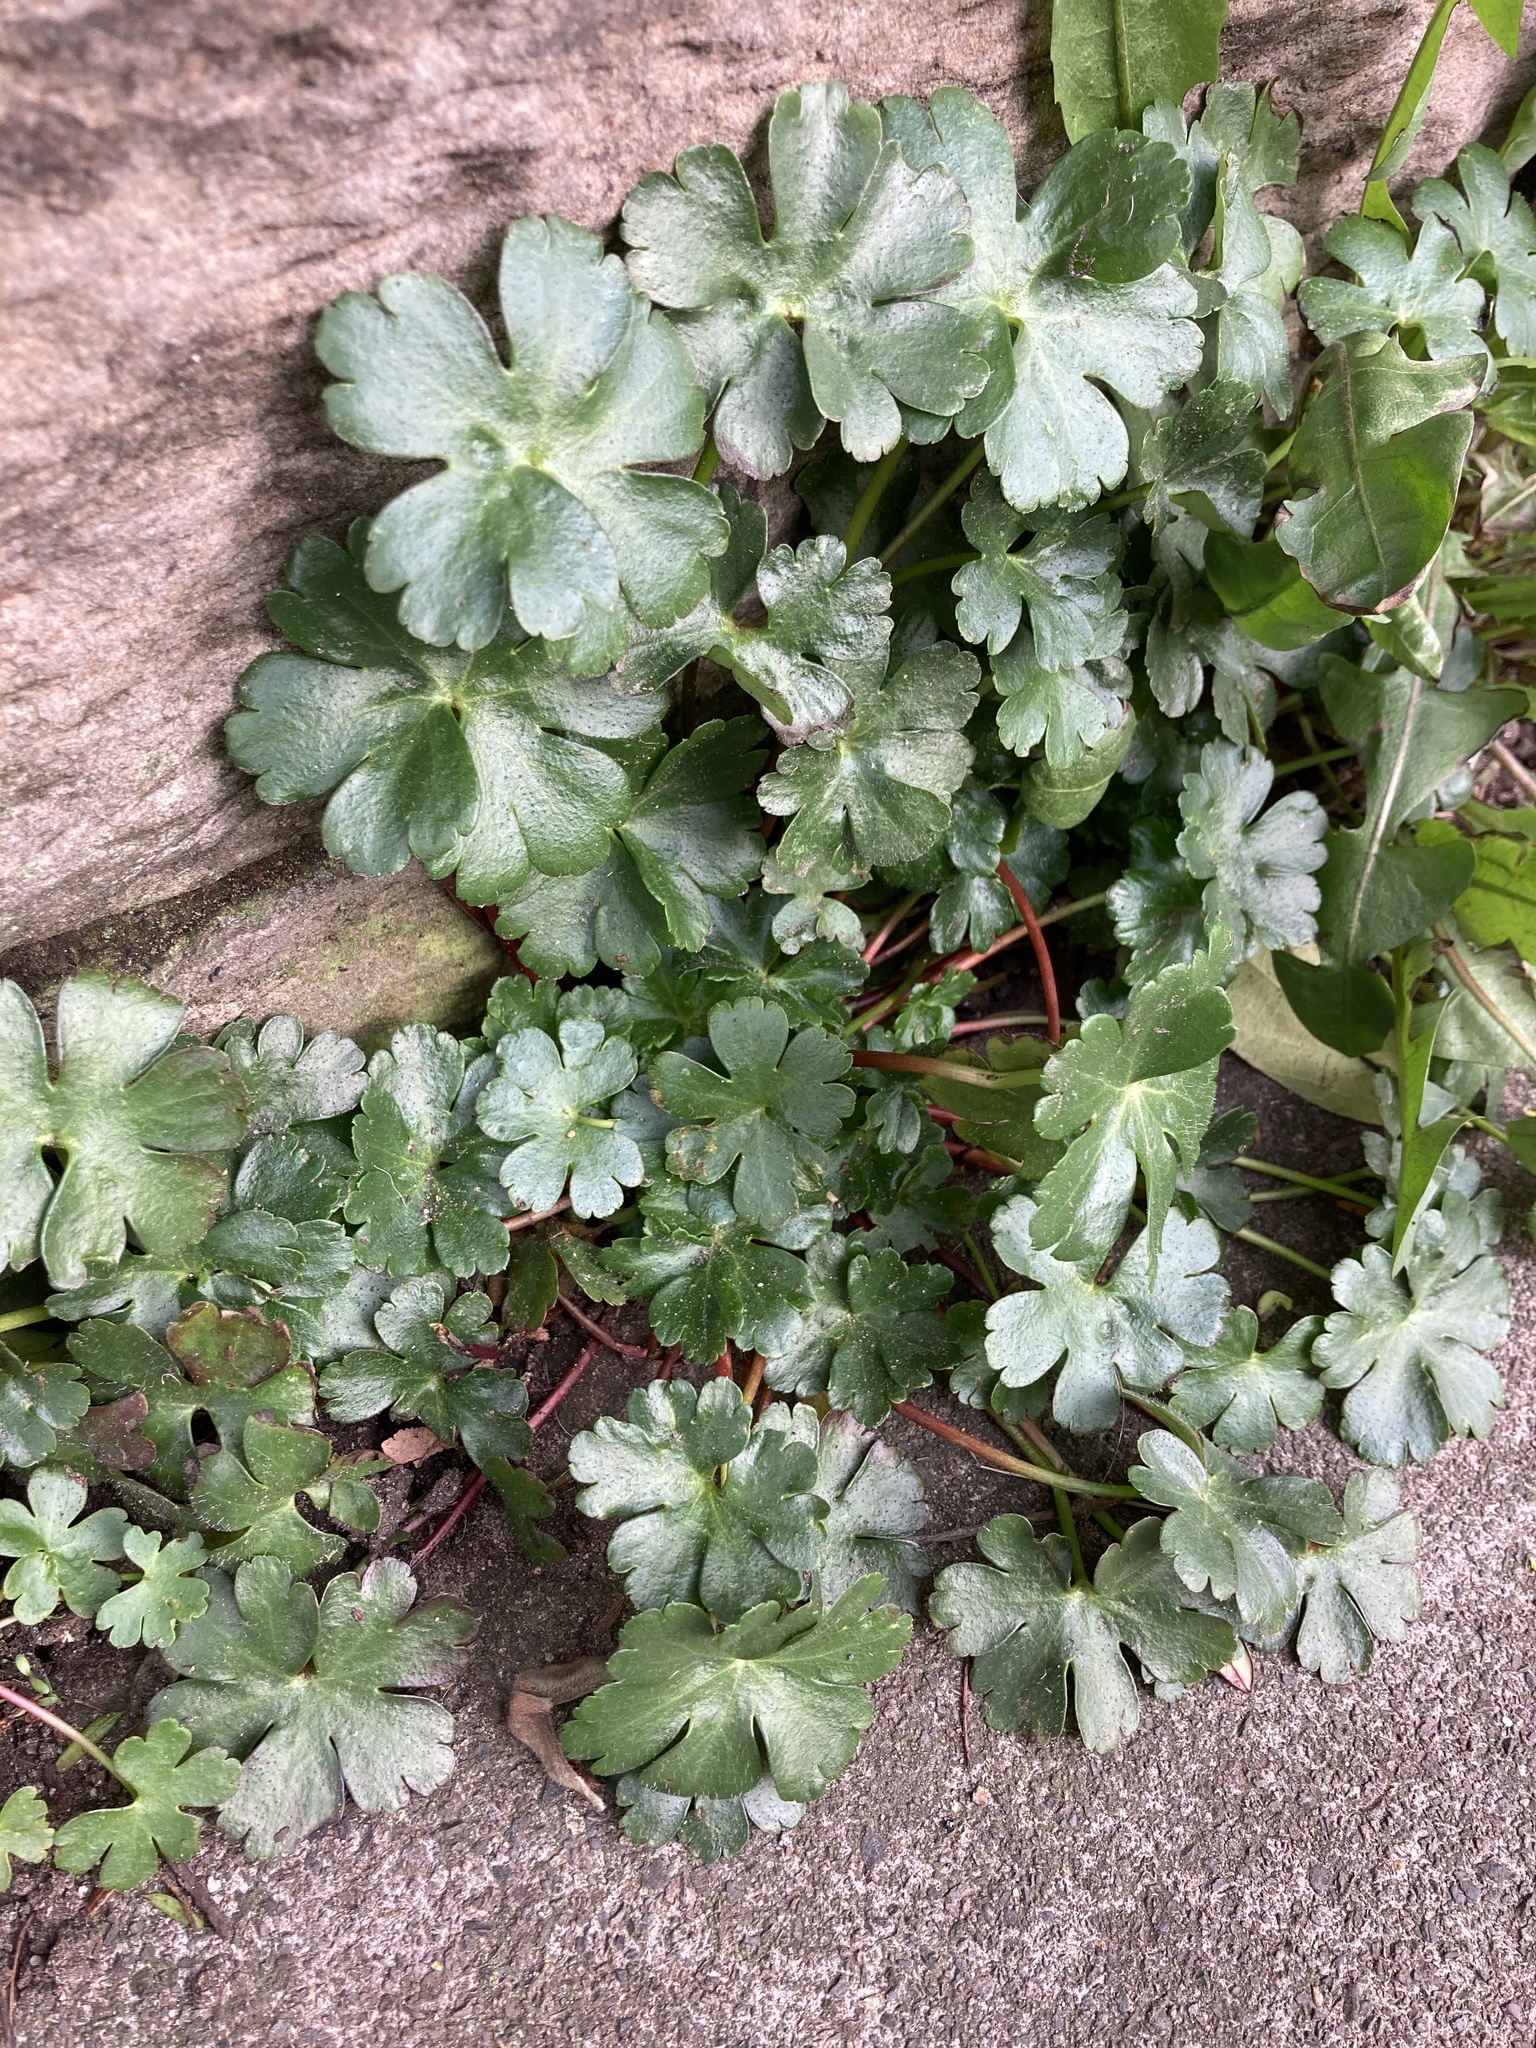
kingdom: Plantae
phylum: Tracheophyta
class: Magnoliopsida
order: Geraniales
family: Geraniaceae
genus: Geranium
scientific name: Geranium lucidum
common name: Shining crane's-bill
